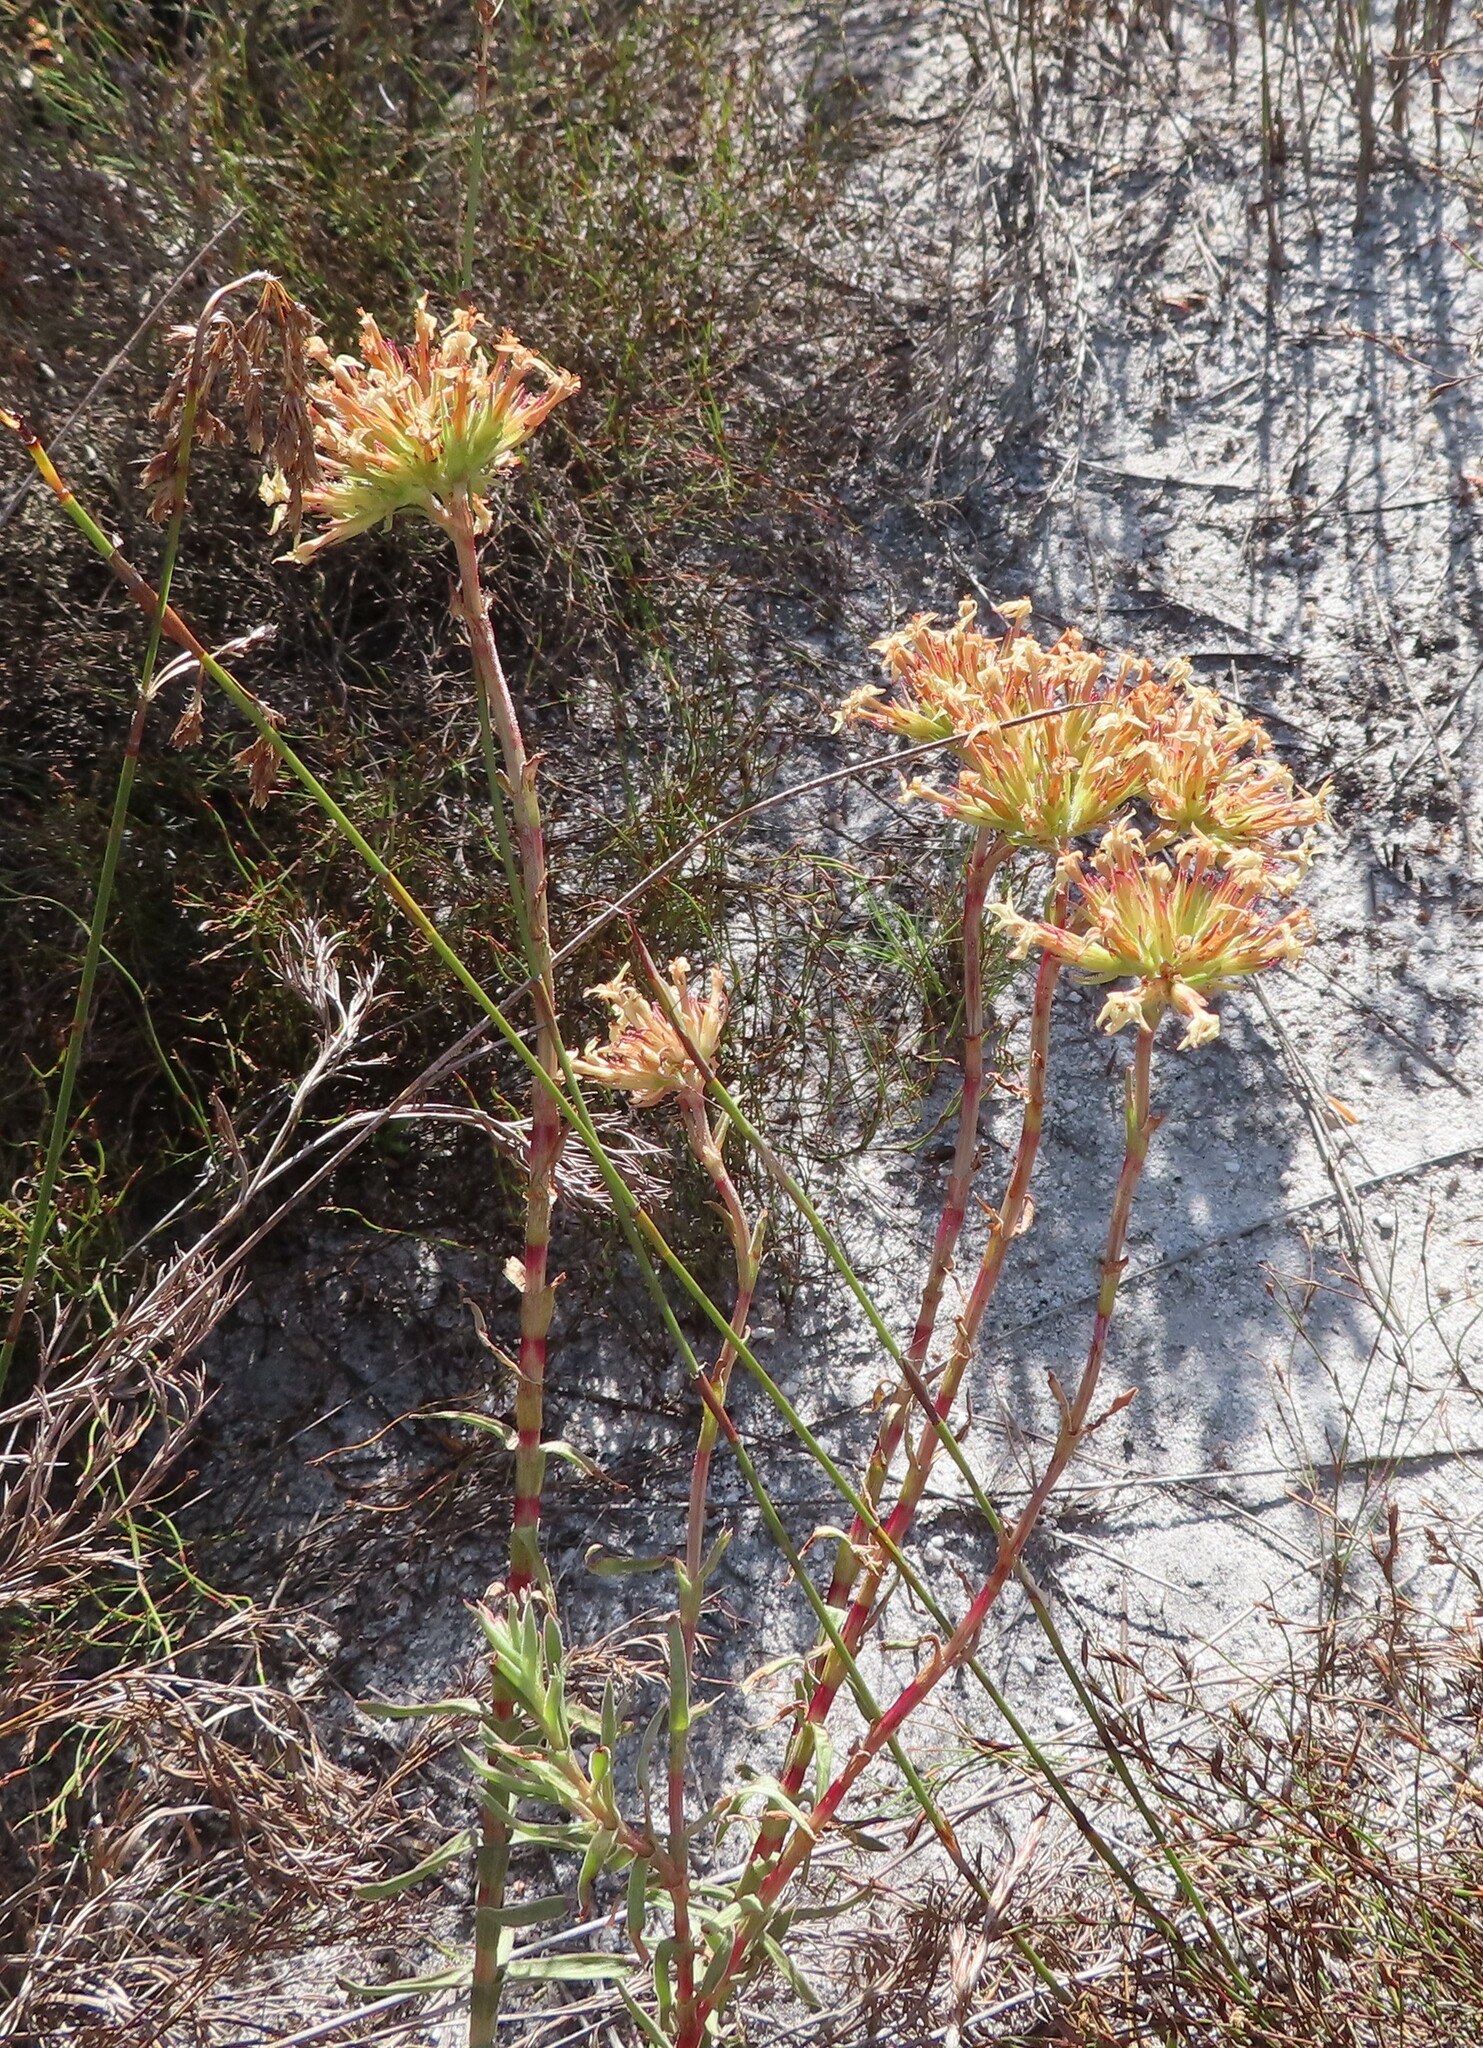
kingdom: Plantae
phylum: Tracheophyta
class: Magnoliopsida
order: Saxifragales
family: Crassulaceae
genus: Crassula
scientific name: Crassula fascicularis
